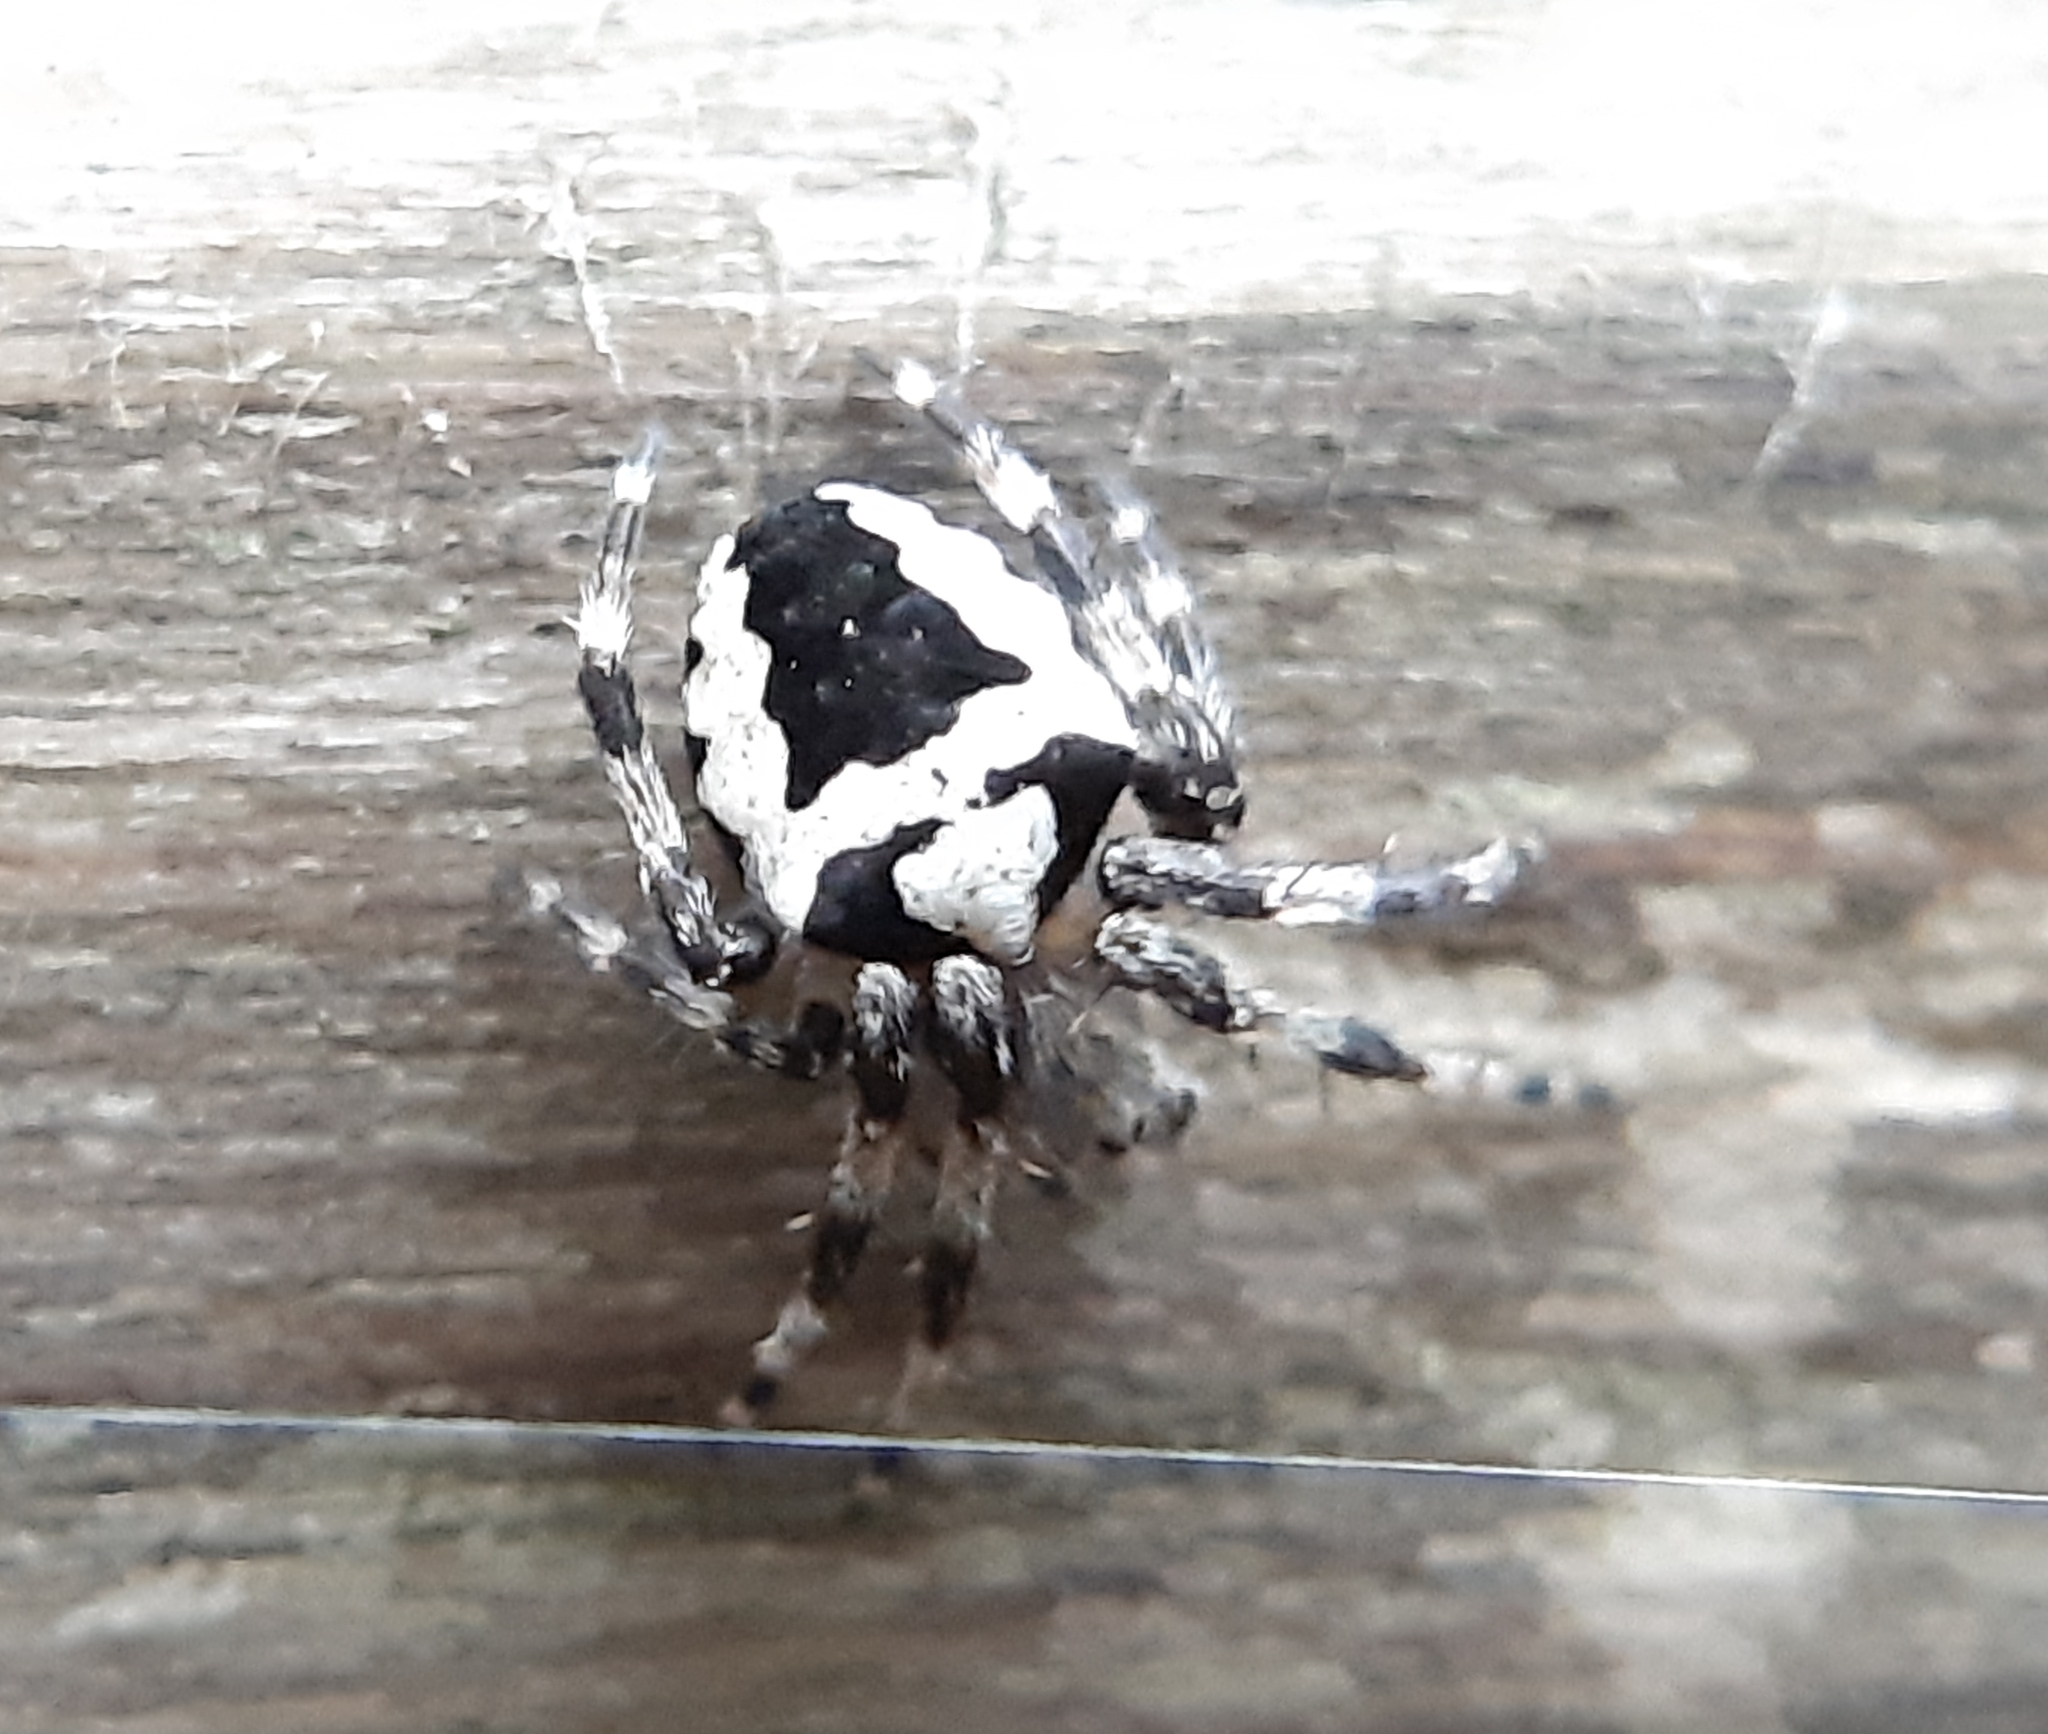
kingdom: Animalia
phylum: Arthropoda
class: Arachnida
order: Araneae
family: Araneidae
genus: Araneus
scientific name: Araneus nordmanni
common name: Nordmann's orbweaver
